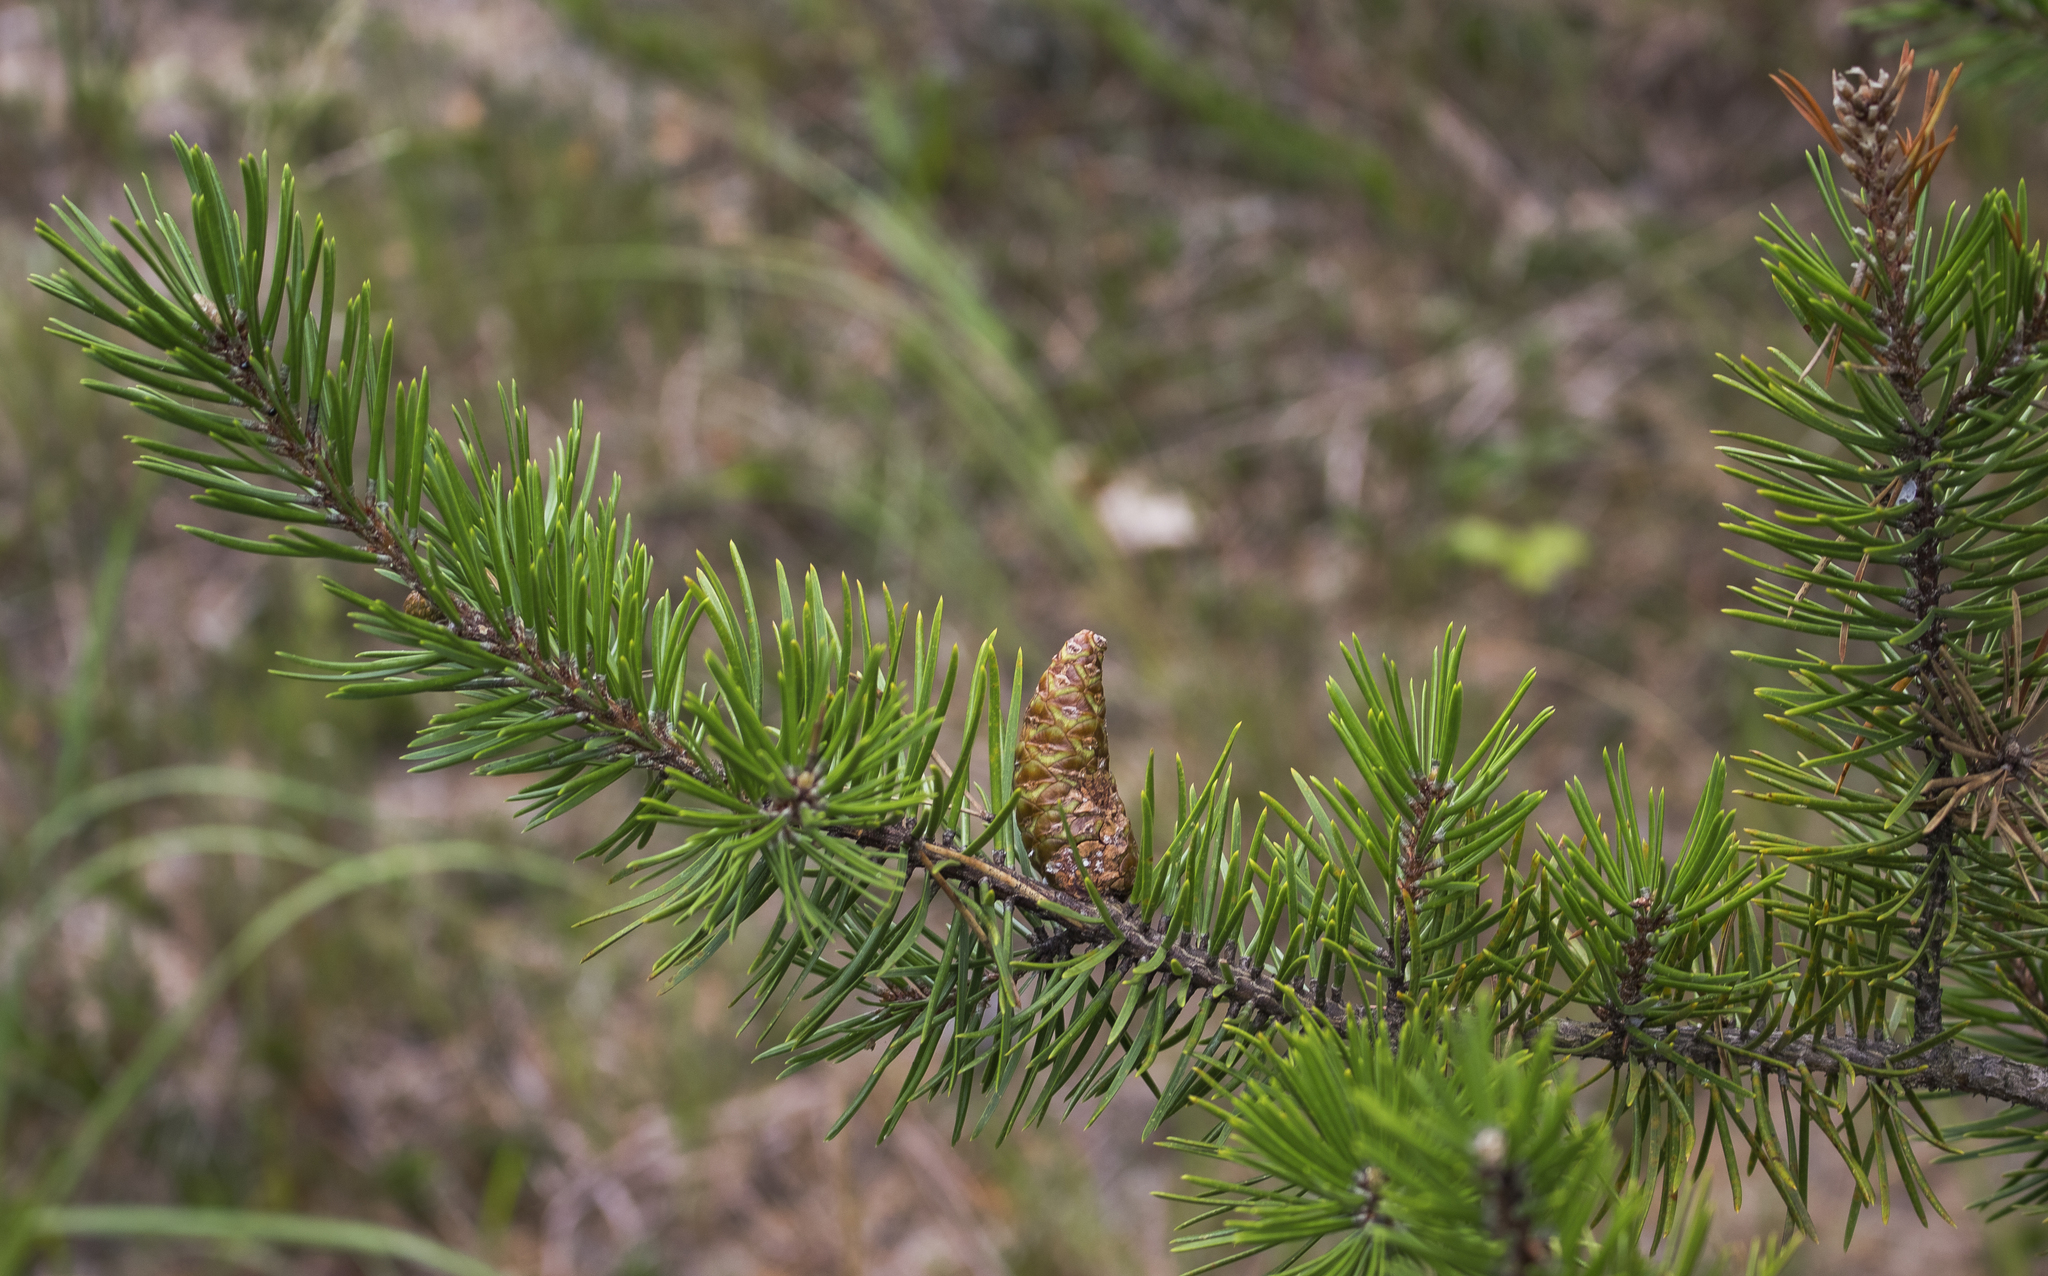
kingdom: Plantae
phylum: Tracheophyta
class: Pinopsida
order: Pinales
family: Pinaceae
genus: Pinus
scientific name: Pinus banksiana
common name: Jack pine
